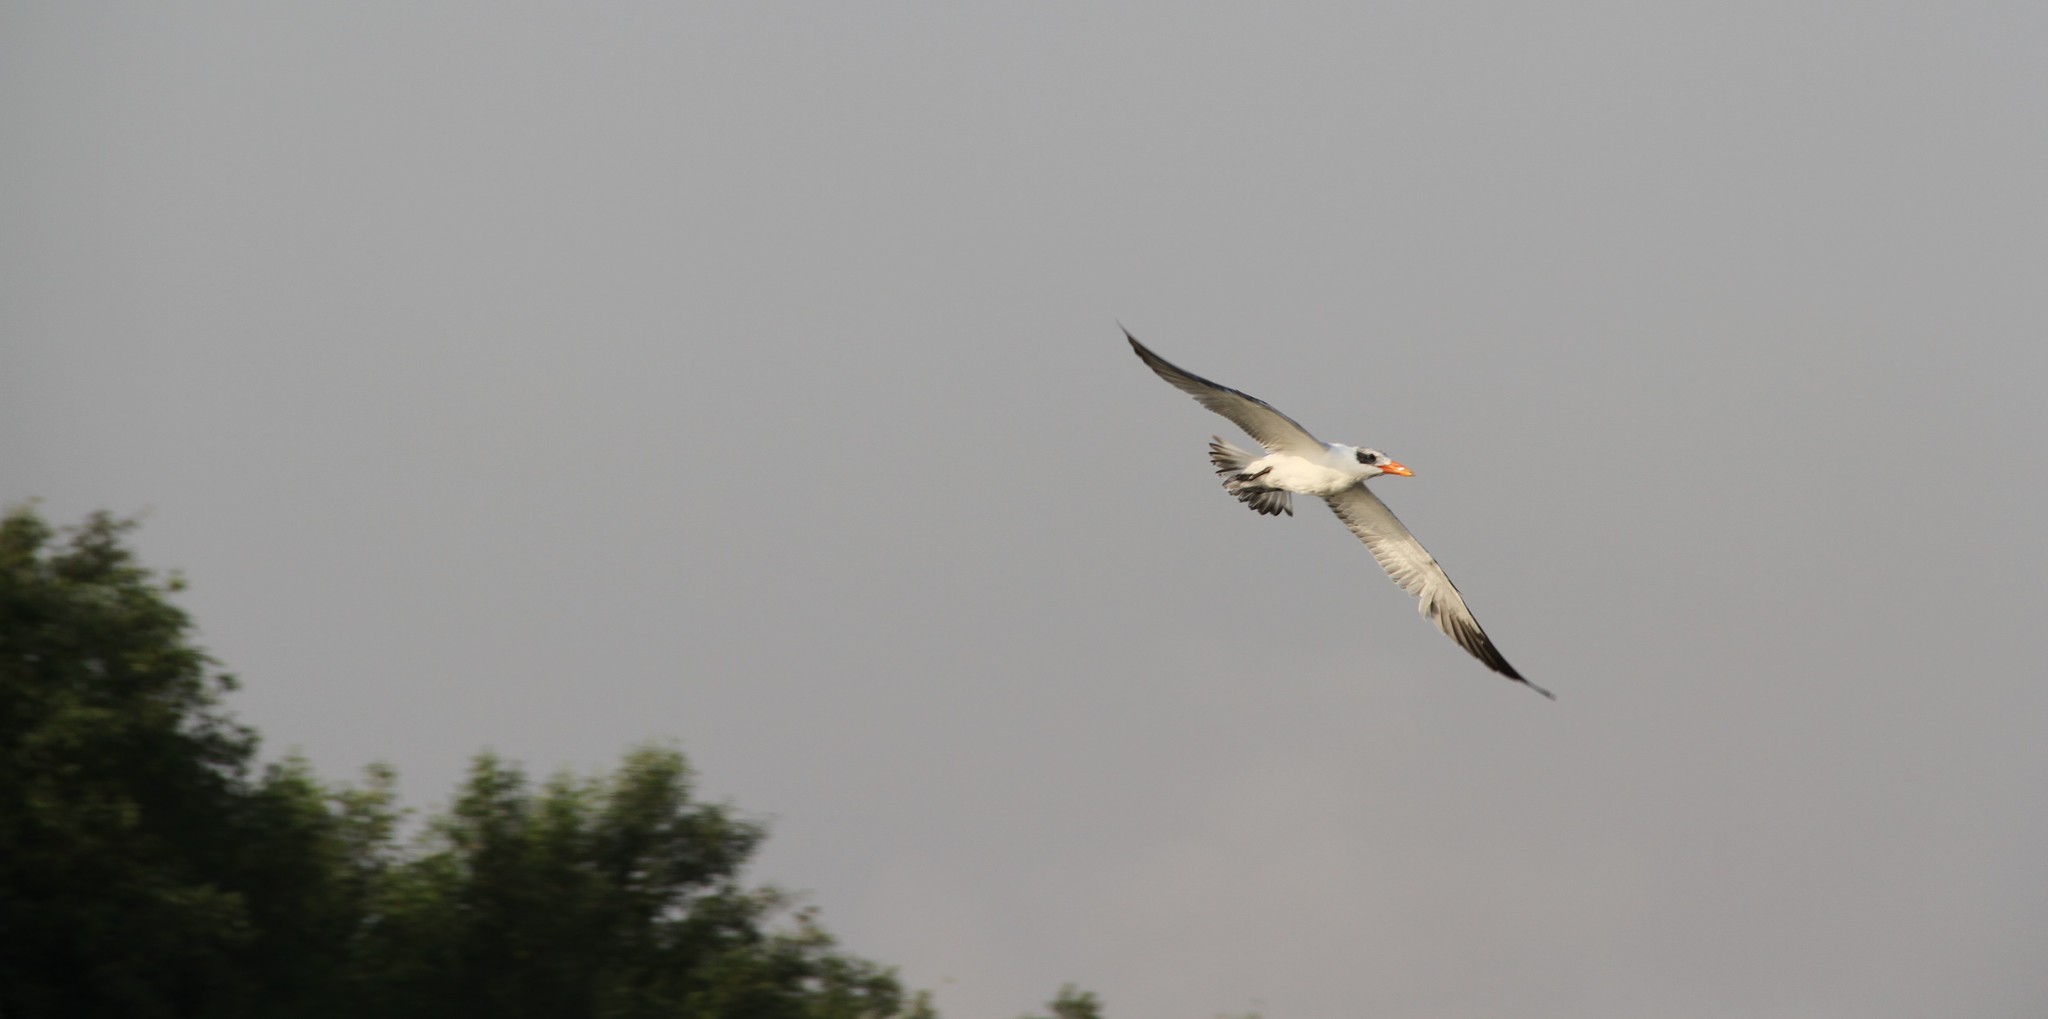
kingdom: Animalia
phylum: Chordata
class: Aves
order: Charadriiformes
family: Laridae
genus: Hydroprogne
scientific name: Hydroprogne caspia
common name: Caspian tern
